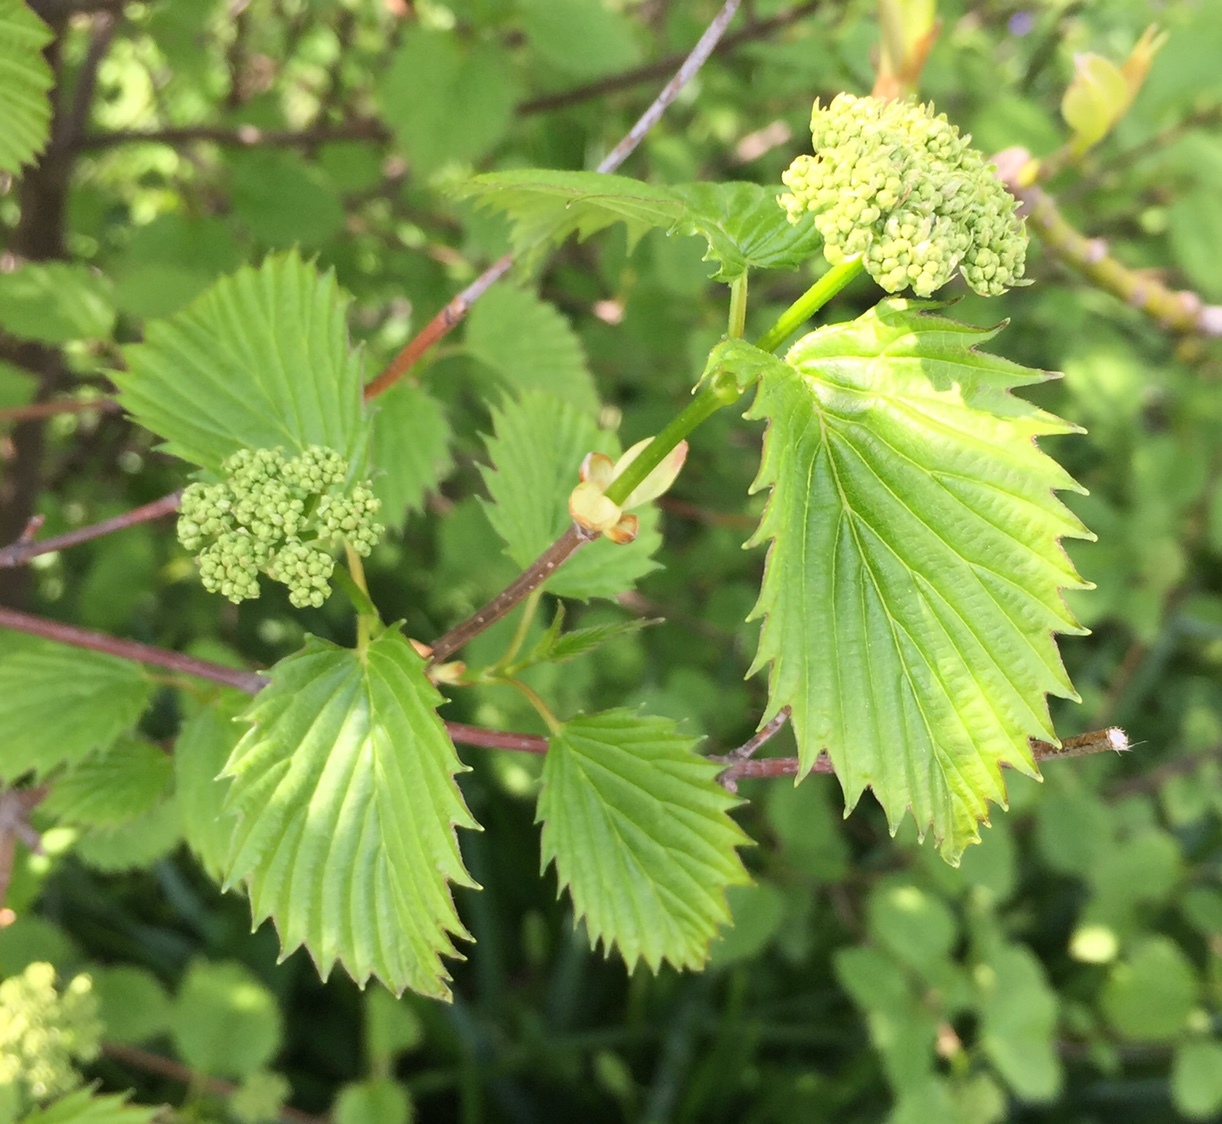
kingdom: Plantae
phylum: Tracheophyta
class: Magnoliopsida
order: Dipsacales
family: Viburnaceae
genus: Viburnum
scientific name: Viburnum dentatum
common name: Arrow-wood
